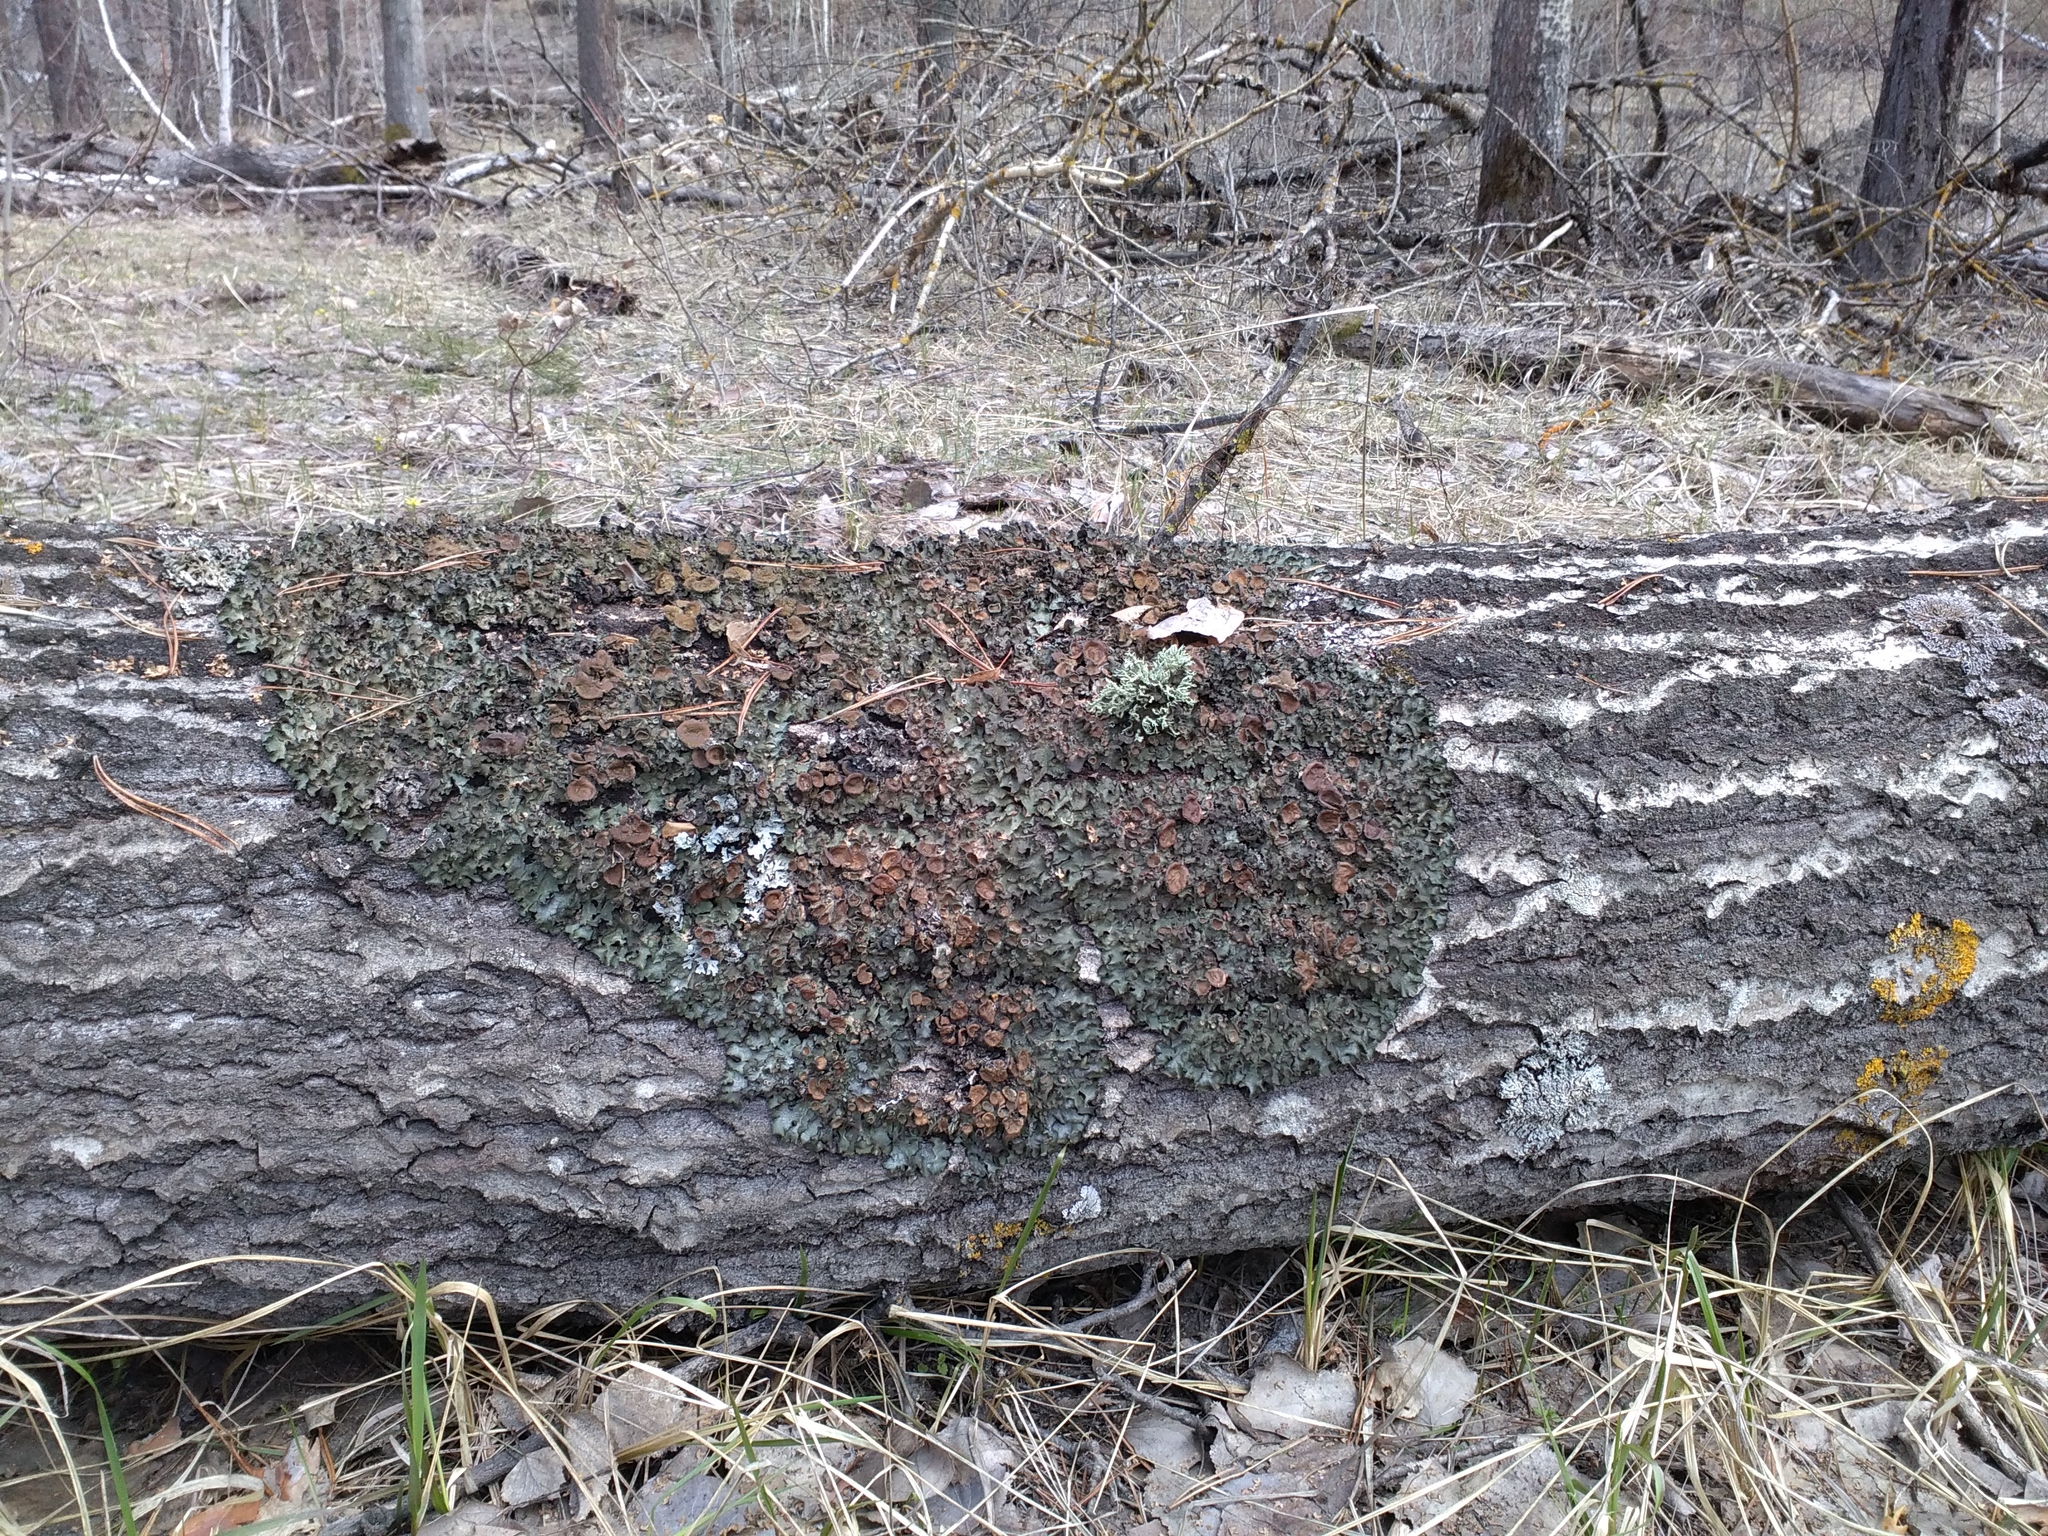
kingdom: Fungi
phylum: Ascomycota
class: Lecanoromycetes
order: Lecanorales
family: Parmeliaceae
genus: Pleurosticta
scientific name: Pleurosticta acetabulum
